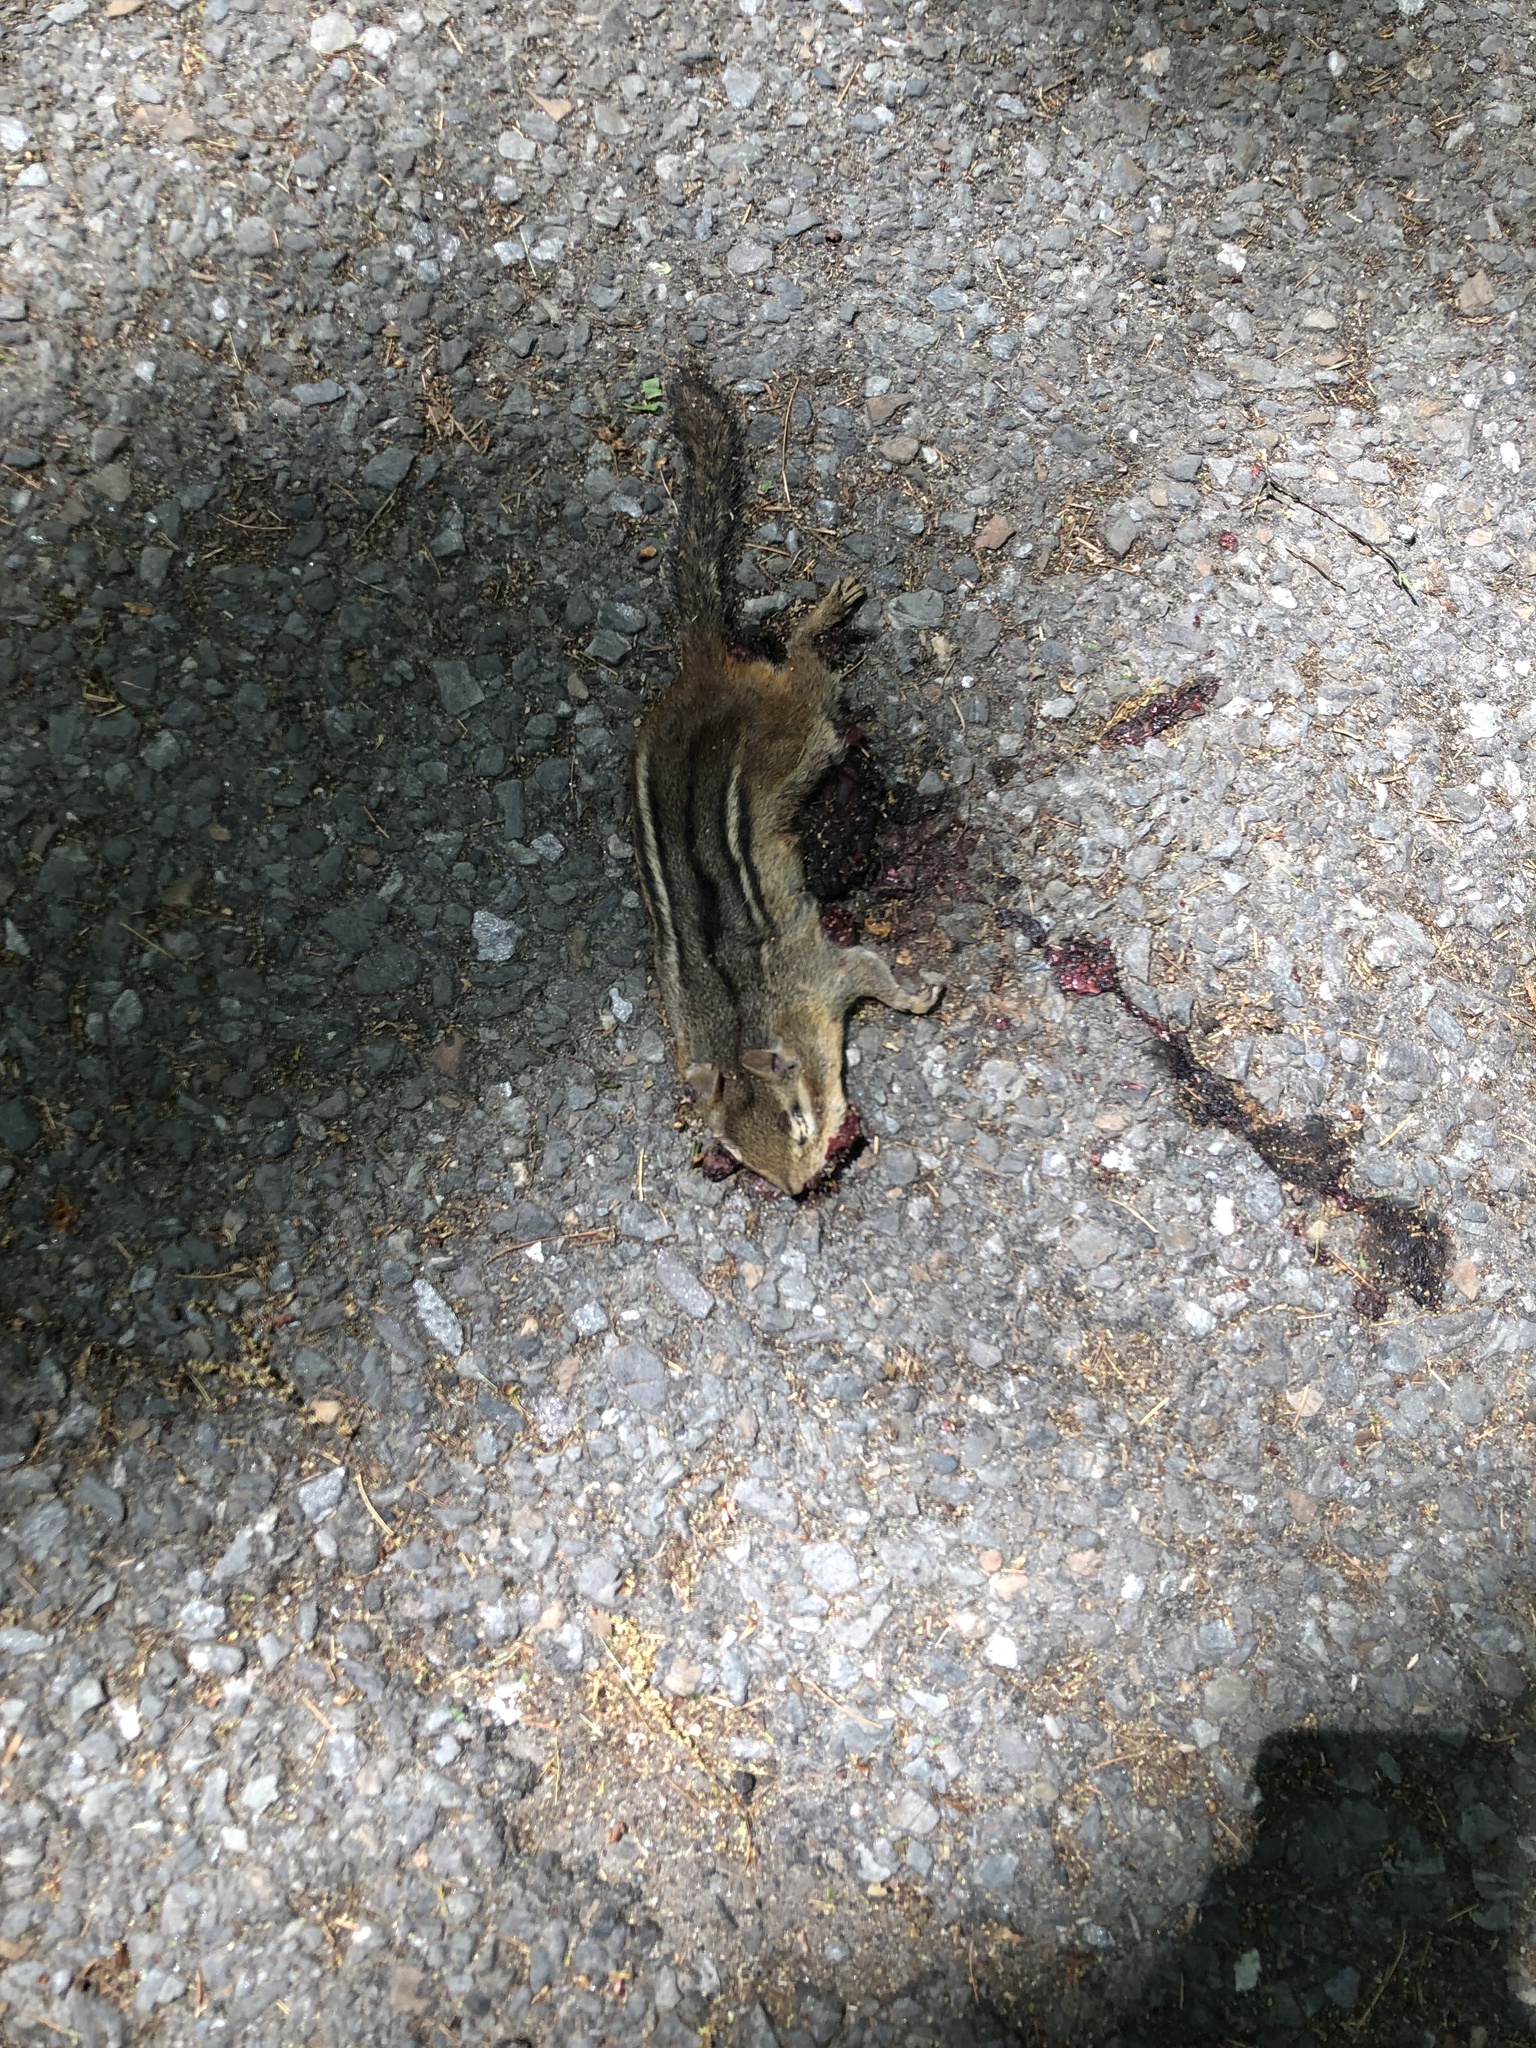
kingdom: Animalia
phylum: Chordata
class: Mammalia
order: Rodentia
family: Sciuridae
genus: Tamias
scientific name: Tamias striatus
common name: Eastern chipmunk
